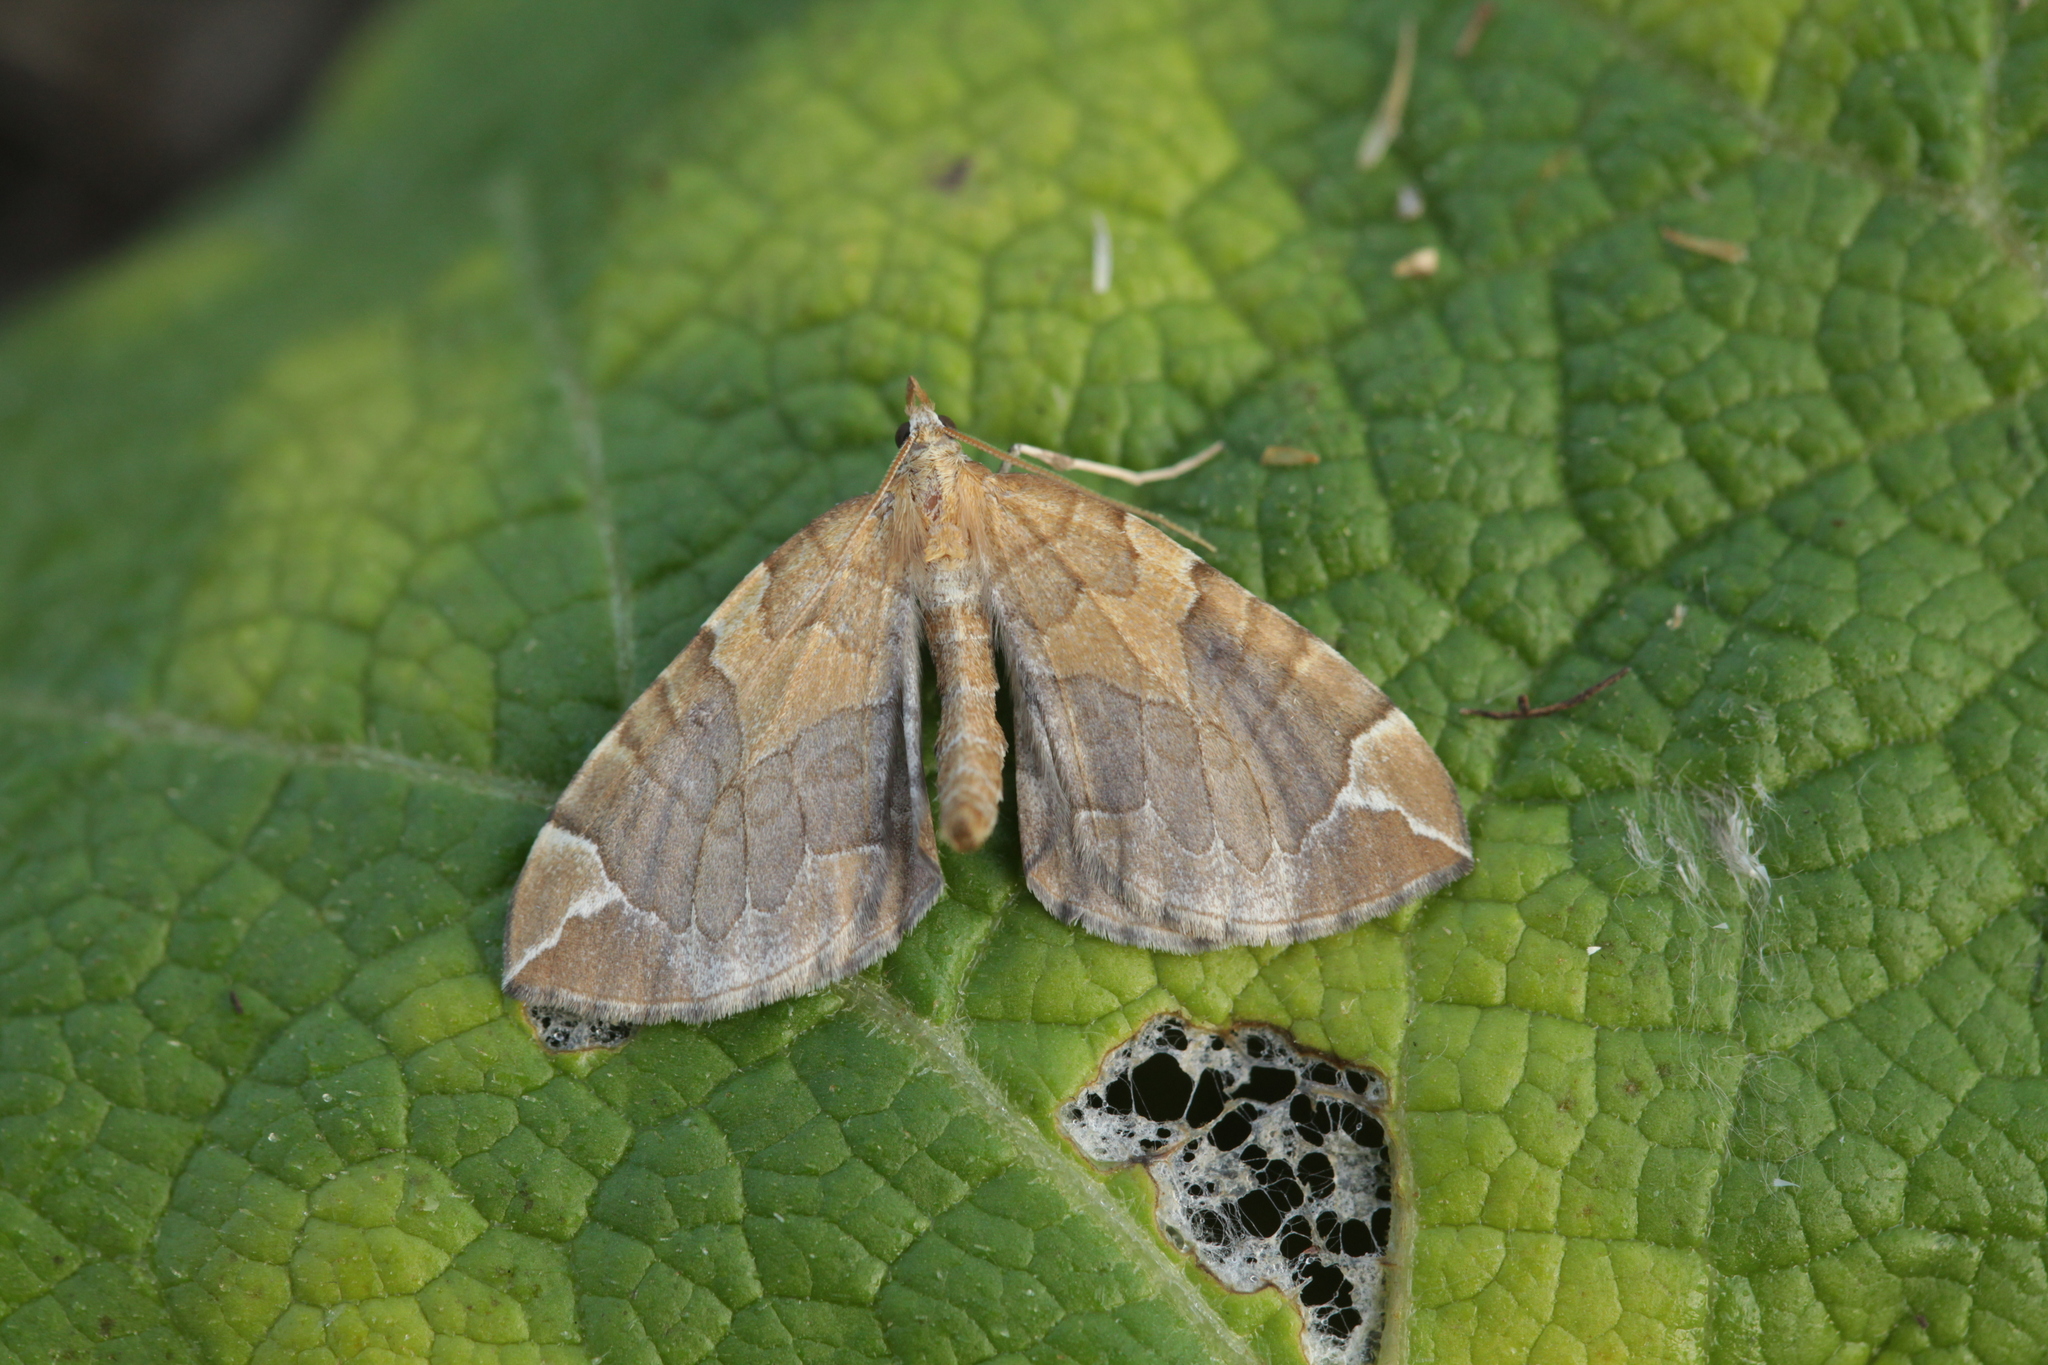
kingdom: Animalia
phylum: Arthropoda
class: Insecta
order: Lepidoptera
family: Geometridae
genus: Eulithis
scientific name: Eulithis achatinellaria
